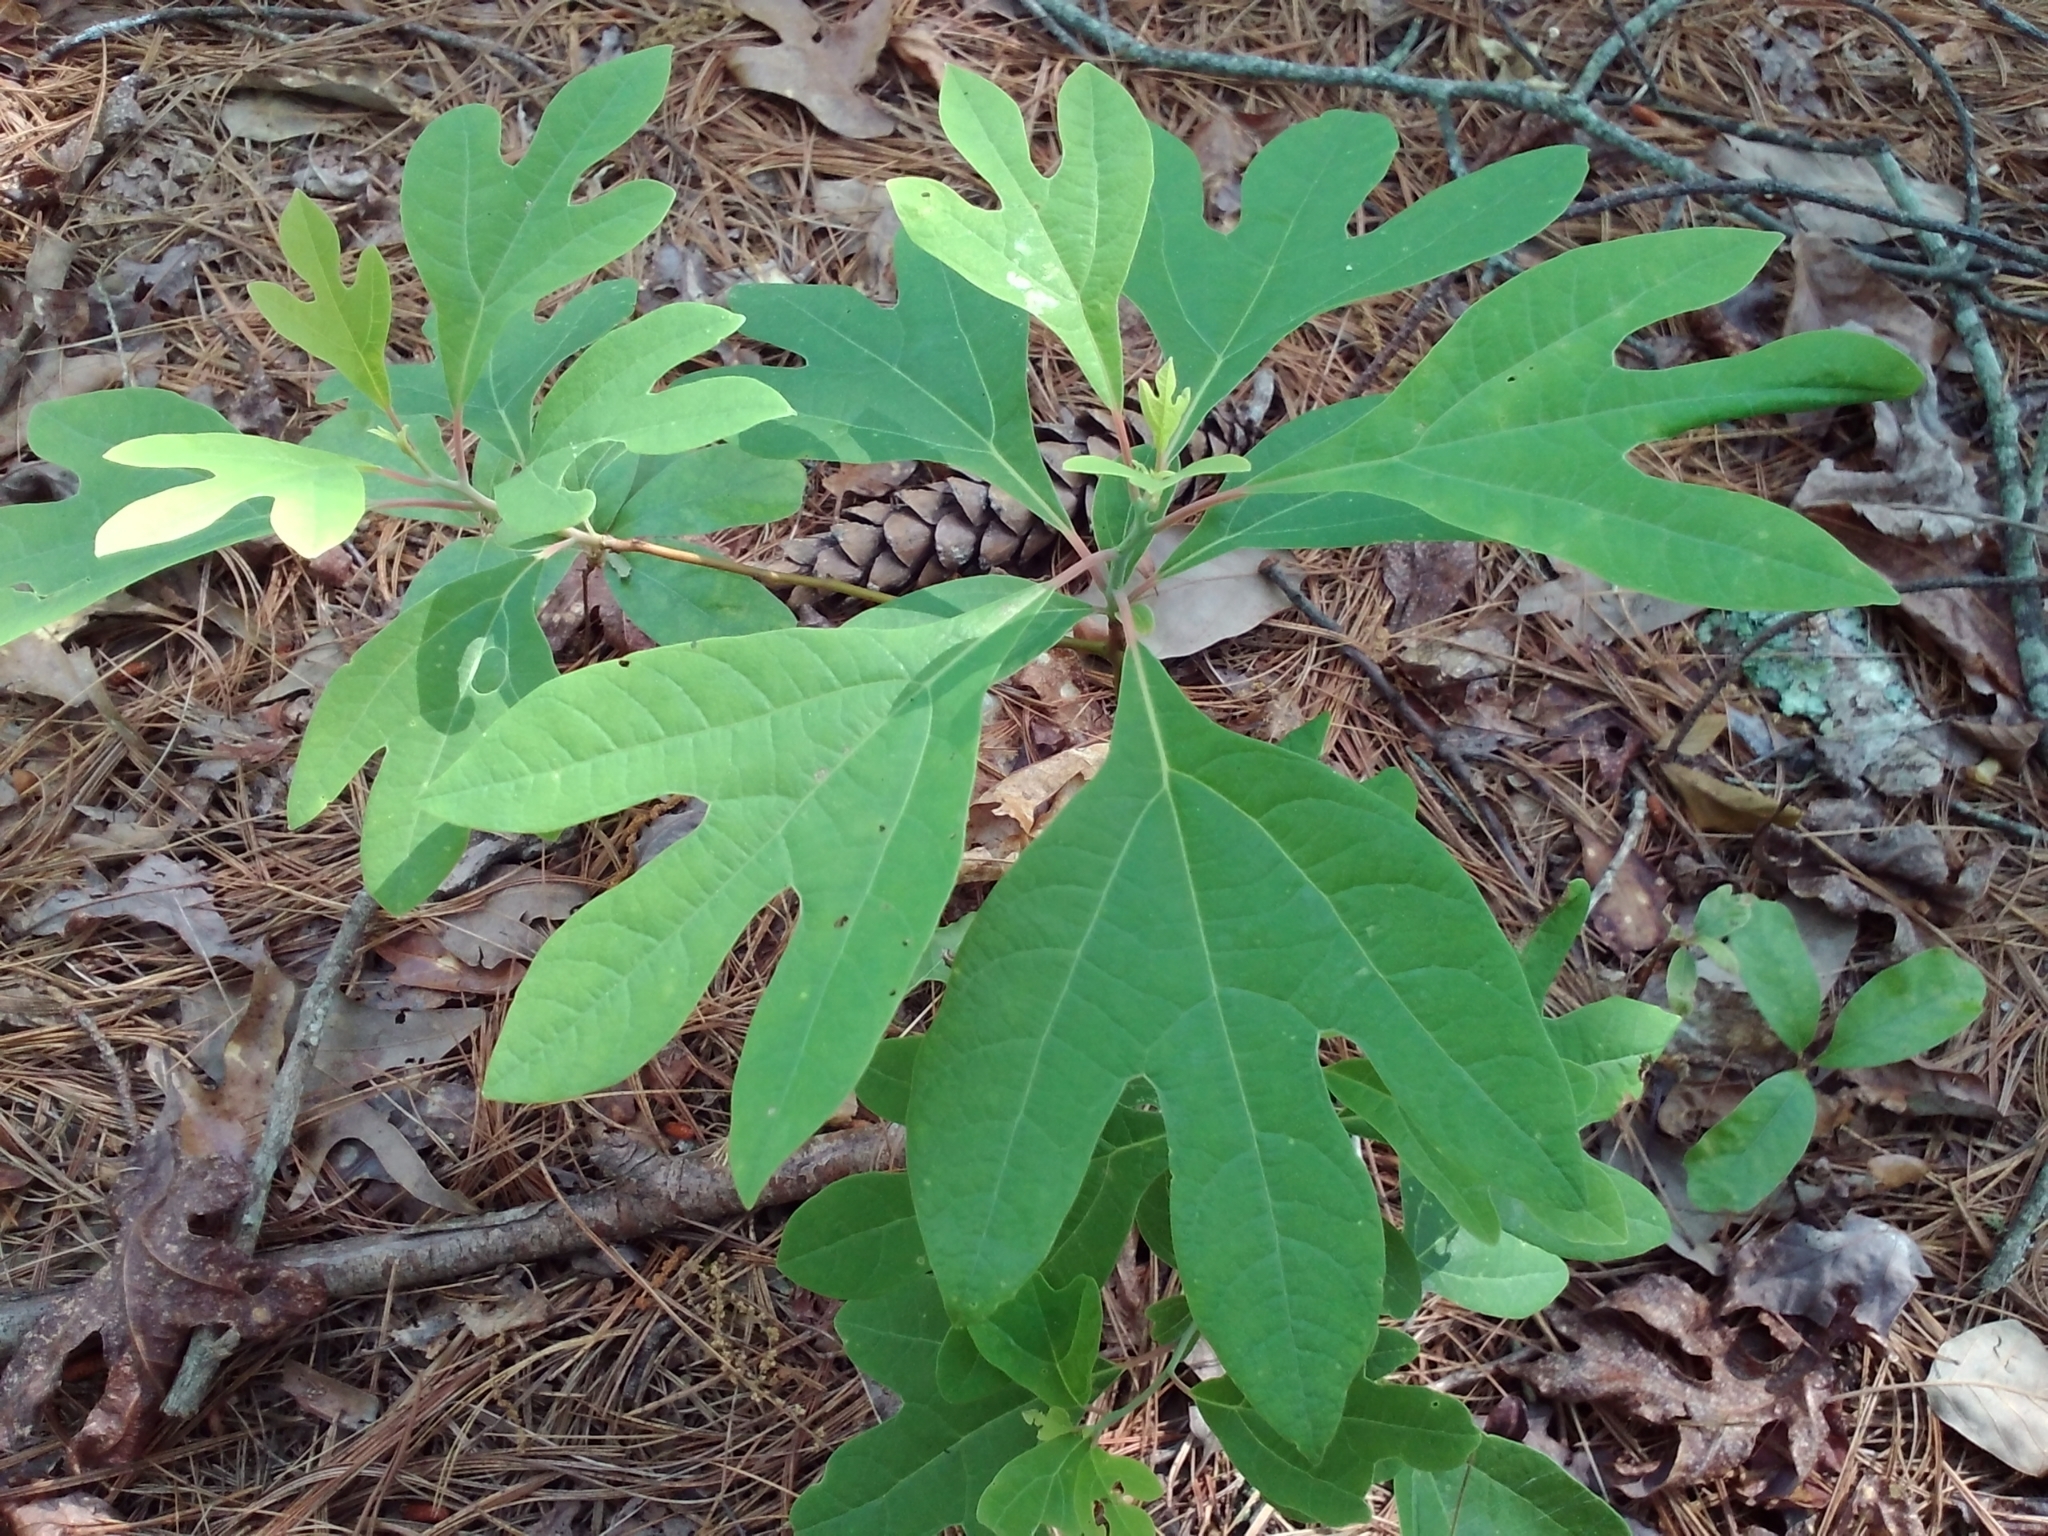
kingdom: Plantae
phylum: Tracheophyta
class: Magnoliopsida
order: Laurales
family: Lauraceae
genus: Sassafras
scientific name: Sassafras albidum
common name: Sassafras
